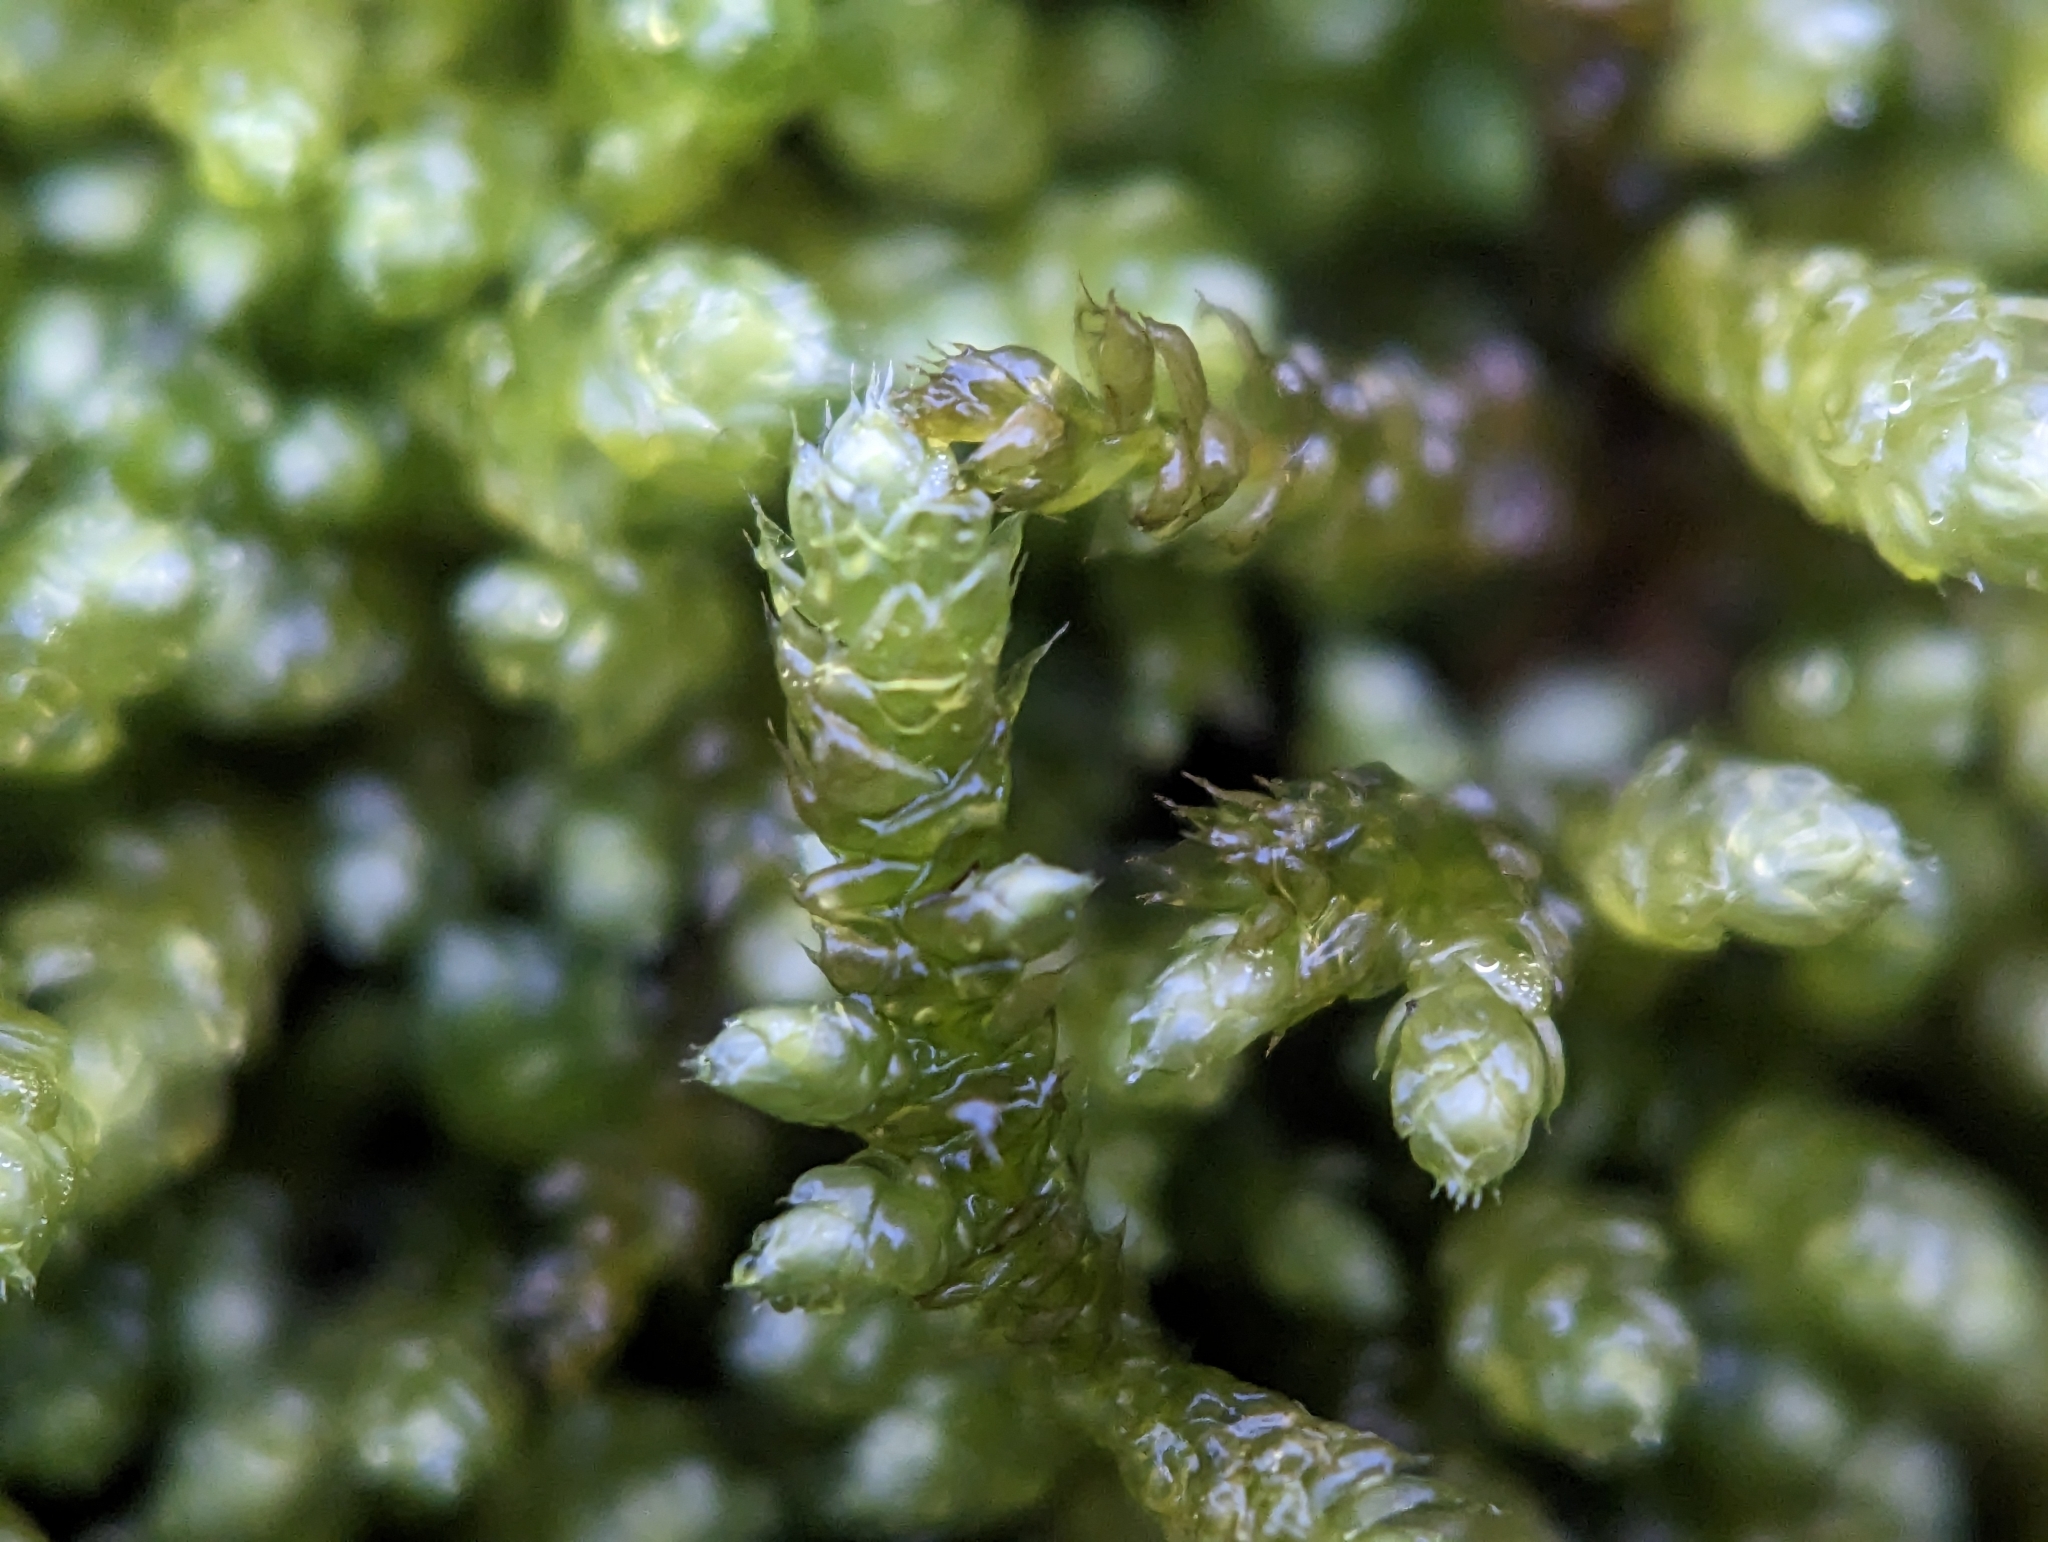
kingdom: Plantae
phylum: Bryophyta
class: Bryopsida
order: Hypnales
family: Brachytheciaceae
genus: Bryoandersonia
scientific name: Bryoandersonia illecebra
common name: Spoon-leaved moss
